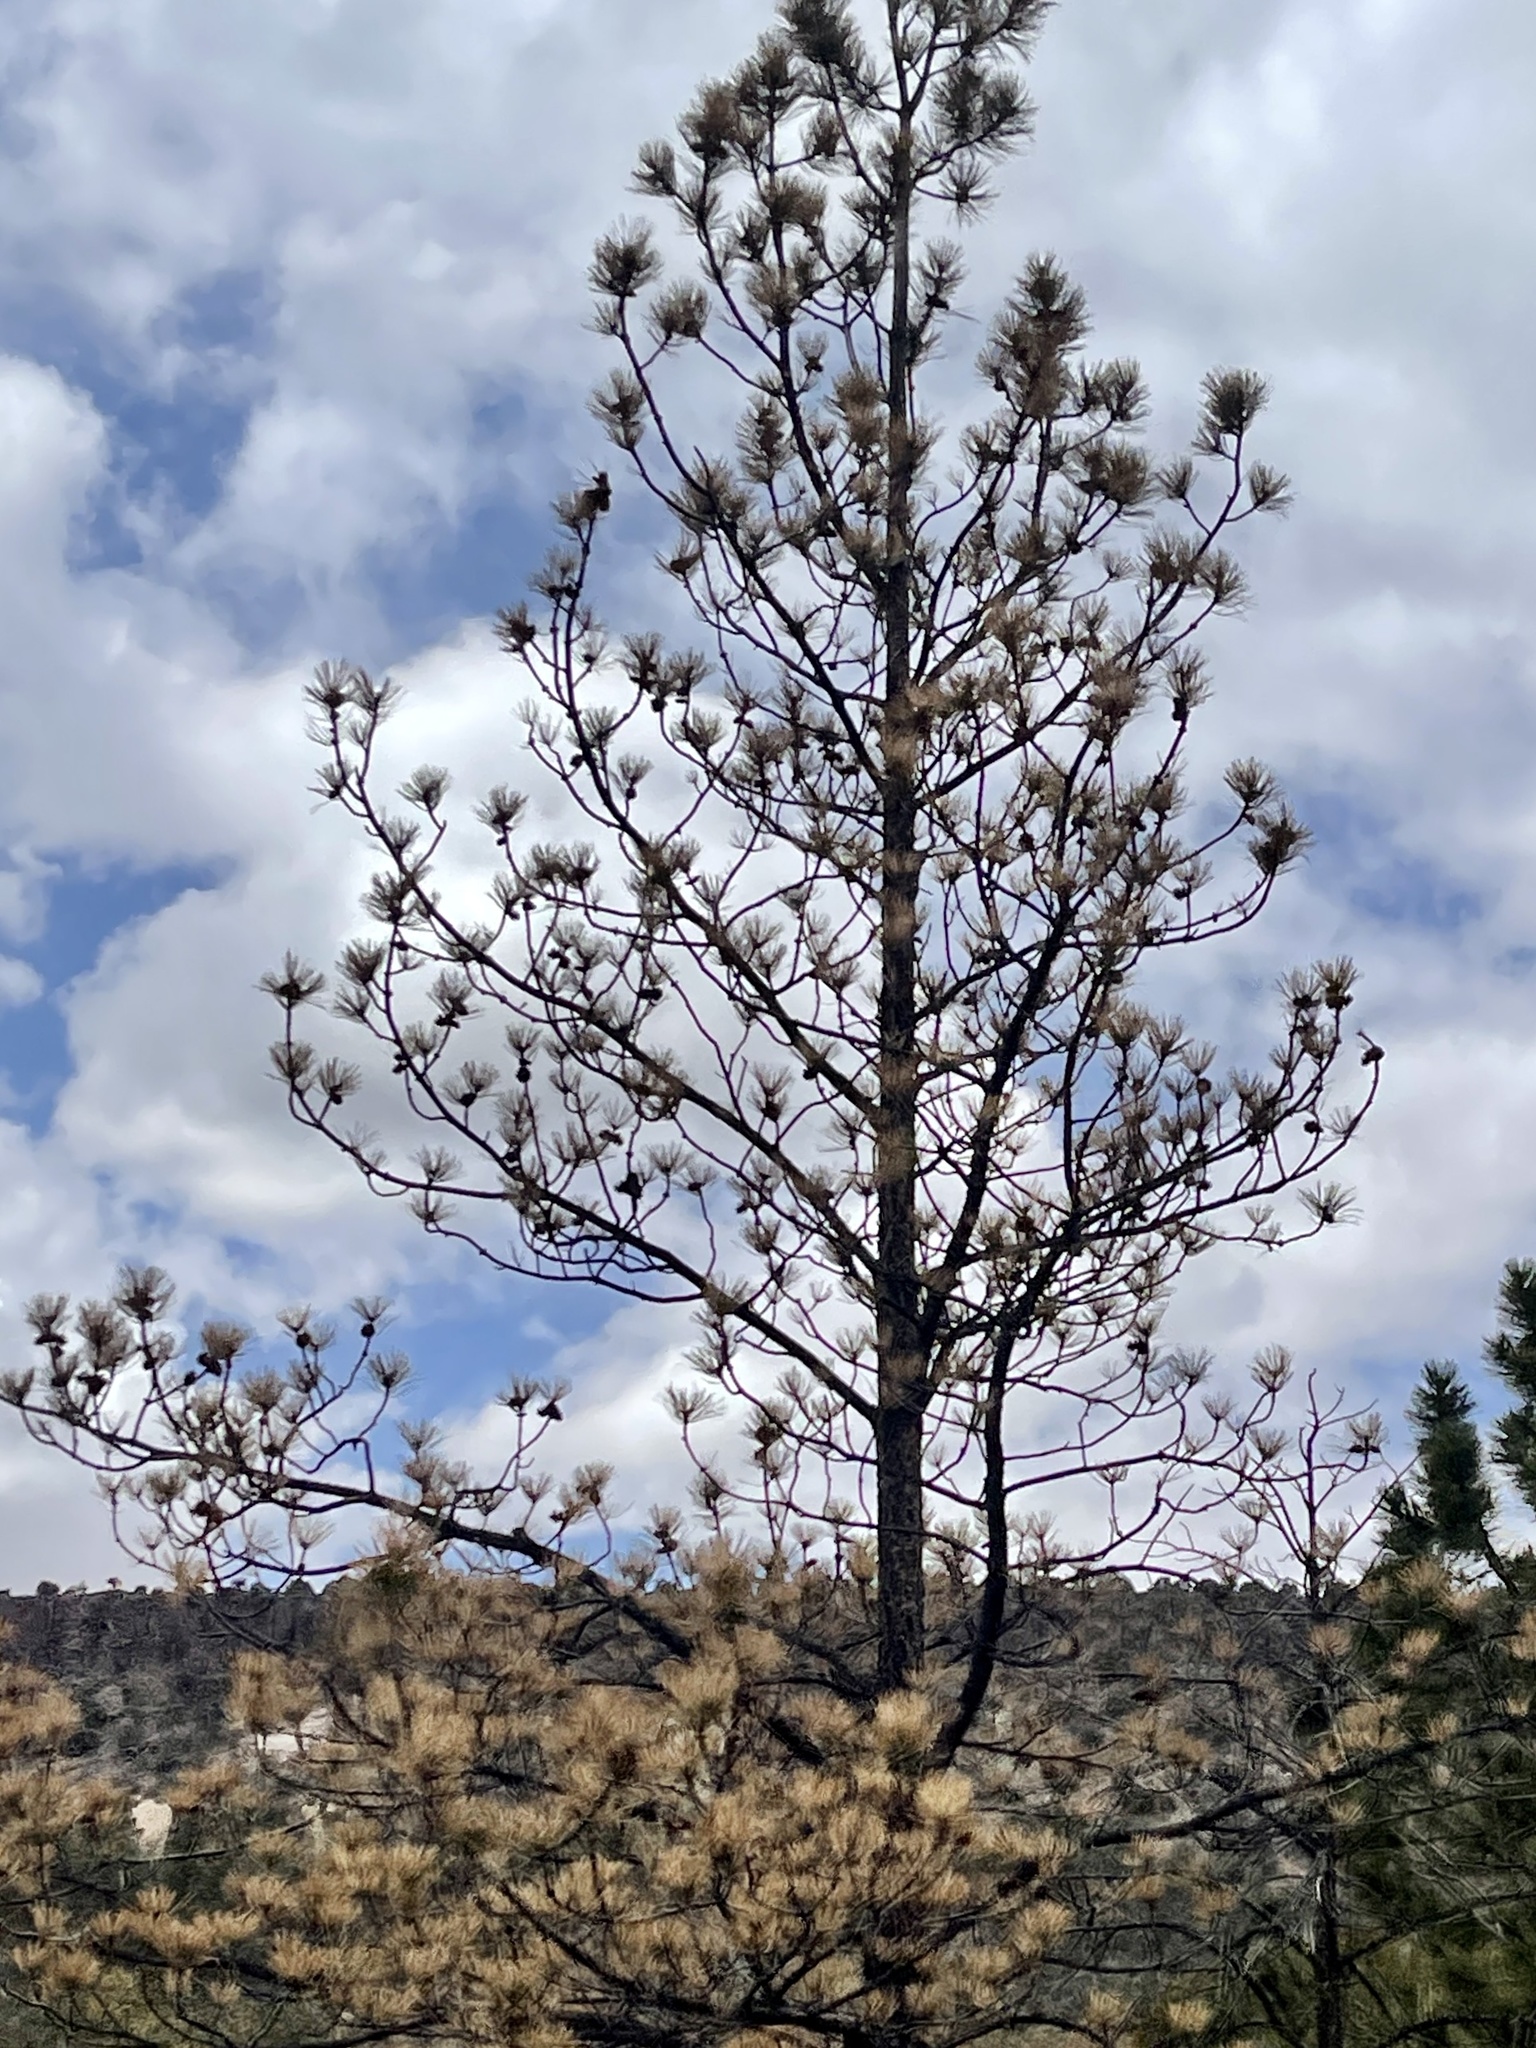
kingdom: Plantae
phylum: Tracheophyta
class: Pinopsida
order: Pinales
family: Pinaceae
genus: Pinus
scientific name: Pinus ponderosa
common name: Western yellow-pine
